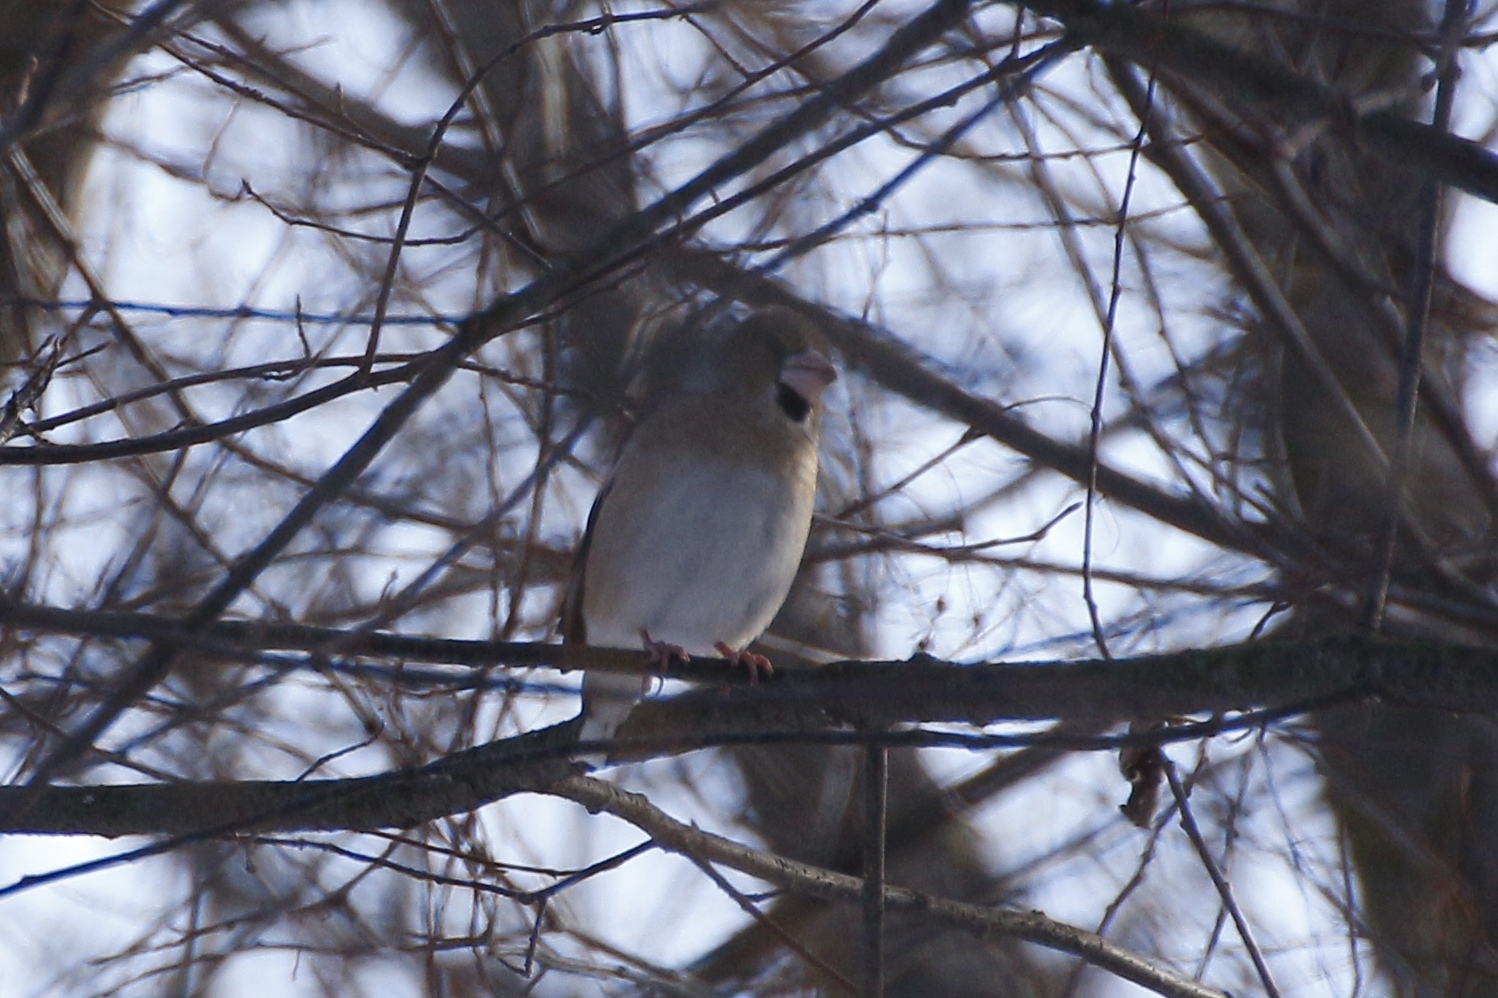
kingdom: Animalia
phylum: Chordata
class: Aves
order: Passeriformes
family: Fringillidae
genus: Coccothraustes
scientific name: Coccothraustes coccothraustes
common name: Hawfinch
